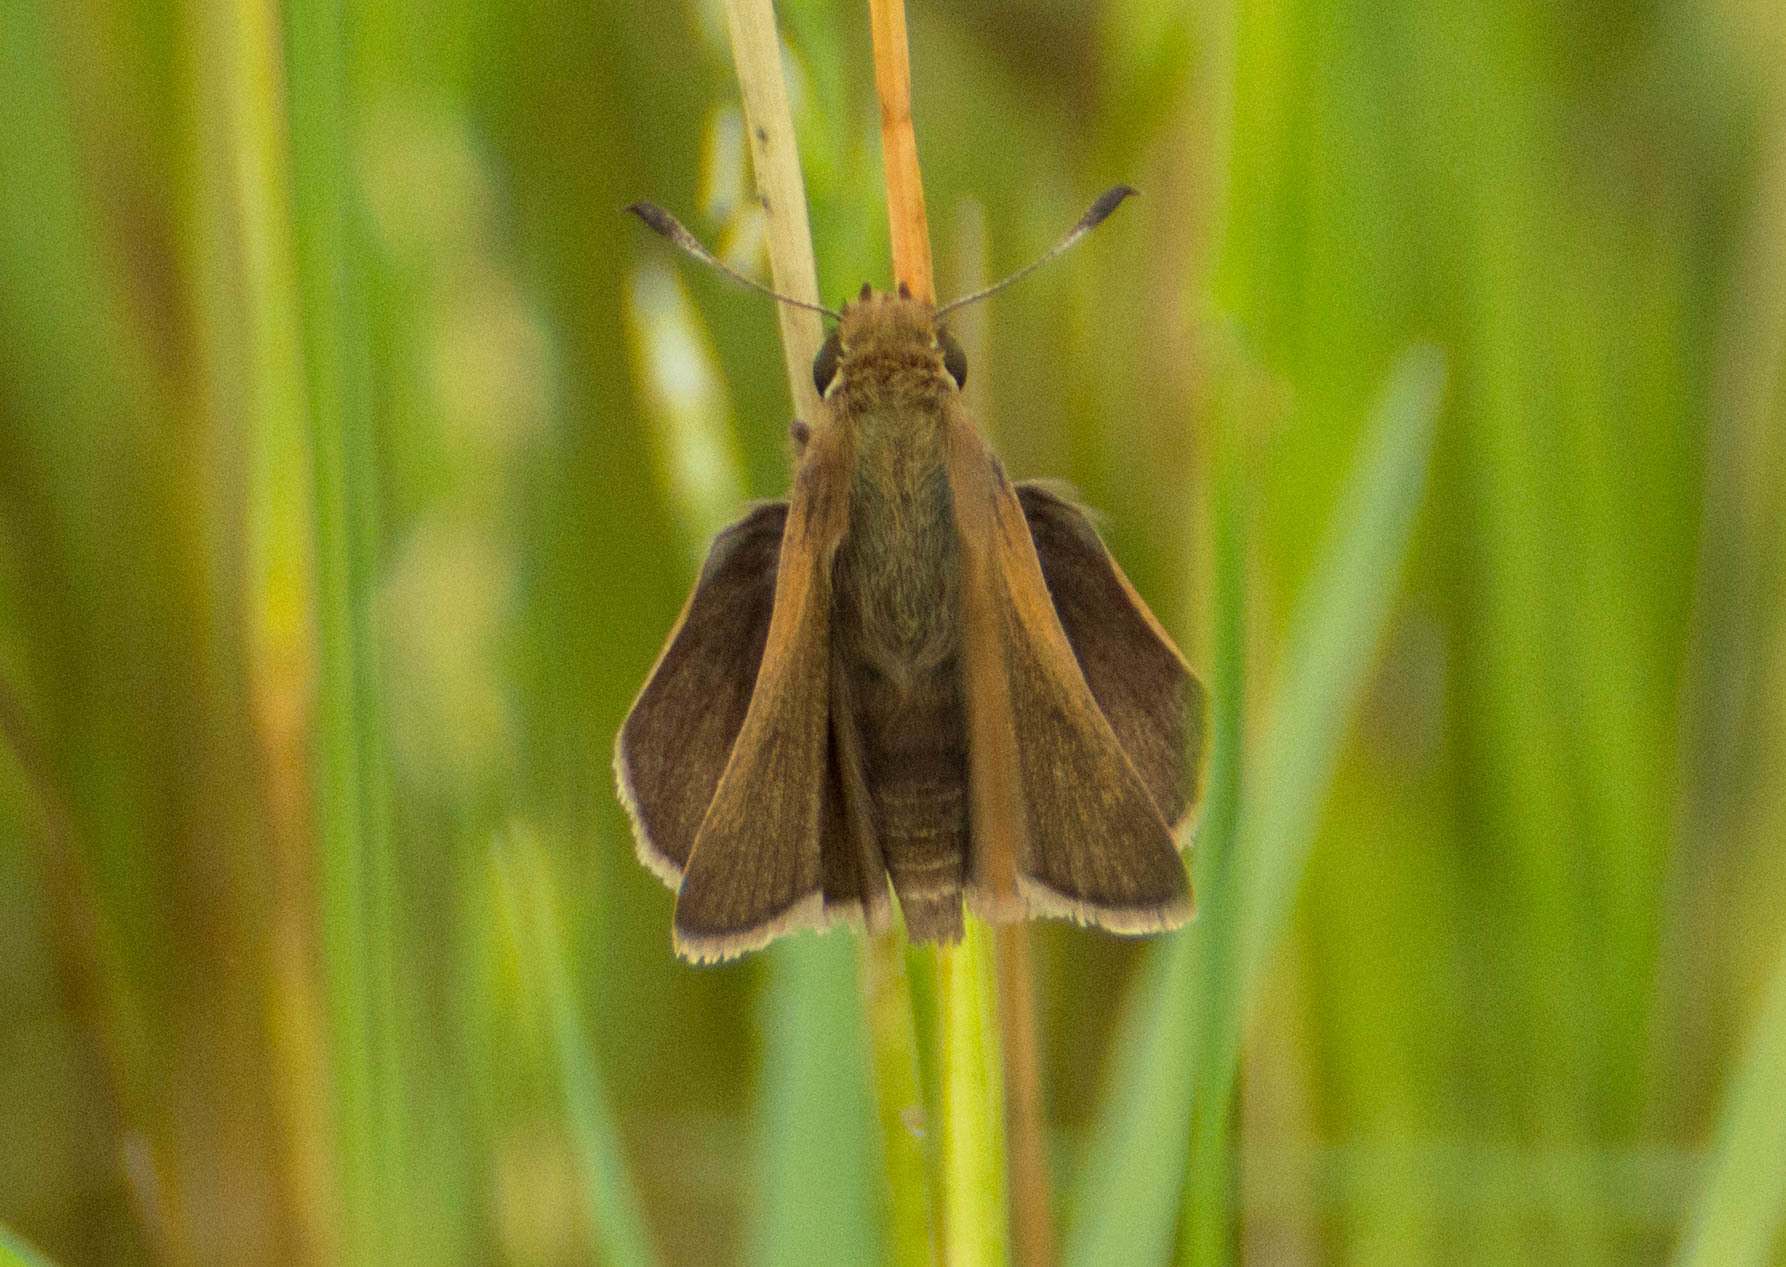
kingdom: Animalia
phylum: Arthropoda
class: Insecta
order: Lepidoptera
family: Hesperiidae
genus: Conga
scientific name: Conga urqua
